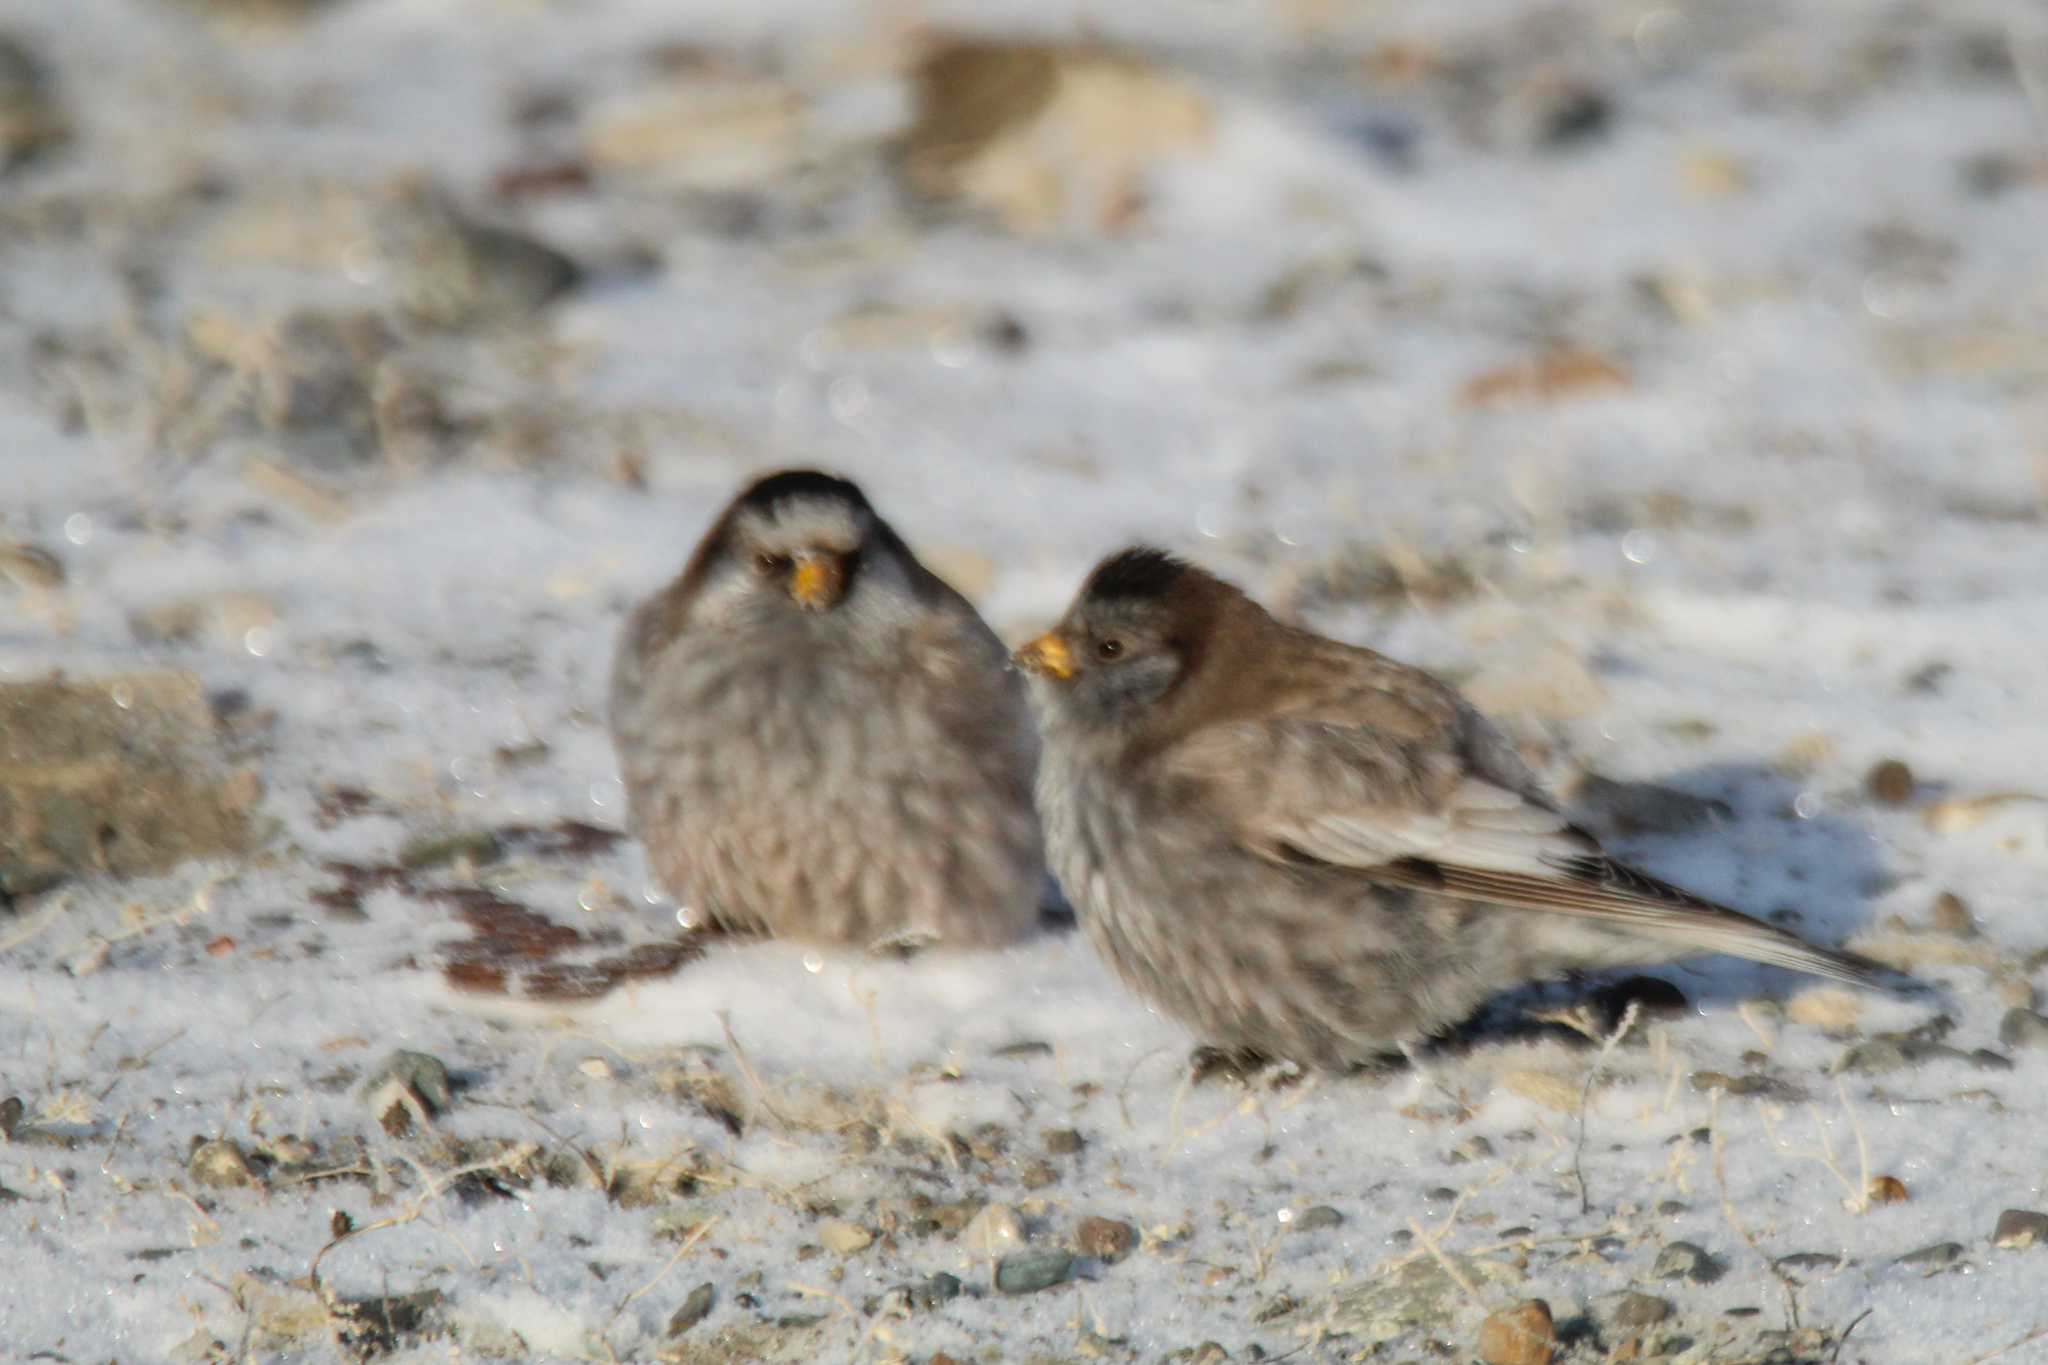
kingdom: Animalia
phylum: Chordata
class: Aves
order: Passeriformes
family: Fringillidae
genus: Leucosticte
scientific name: Leucosticte brandti
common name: Brandt's mountain finch
